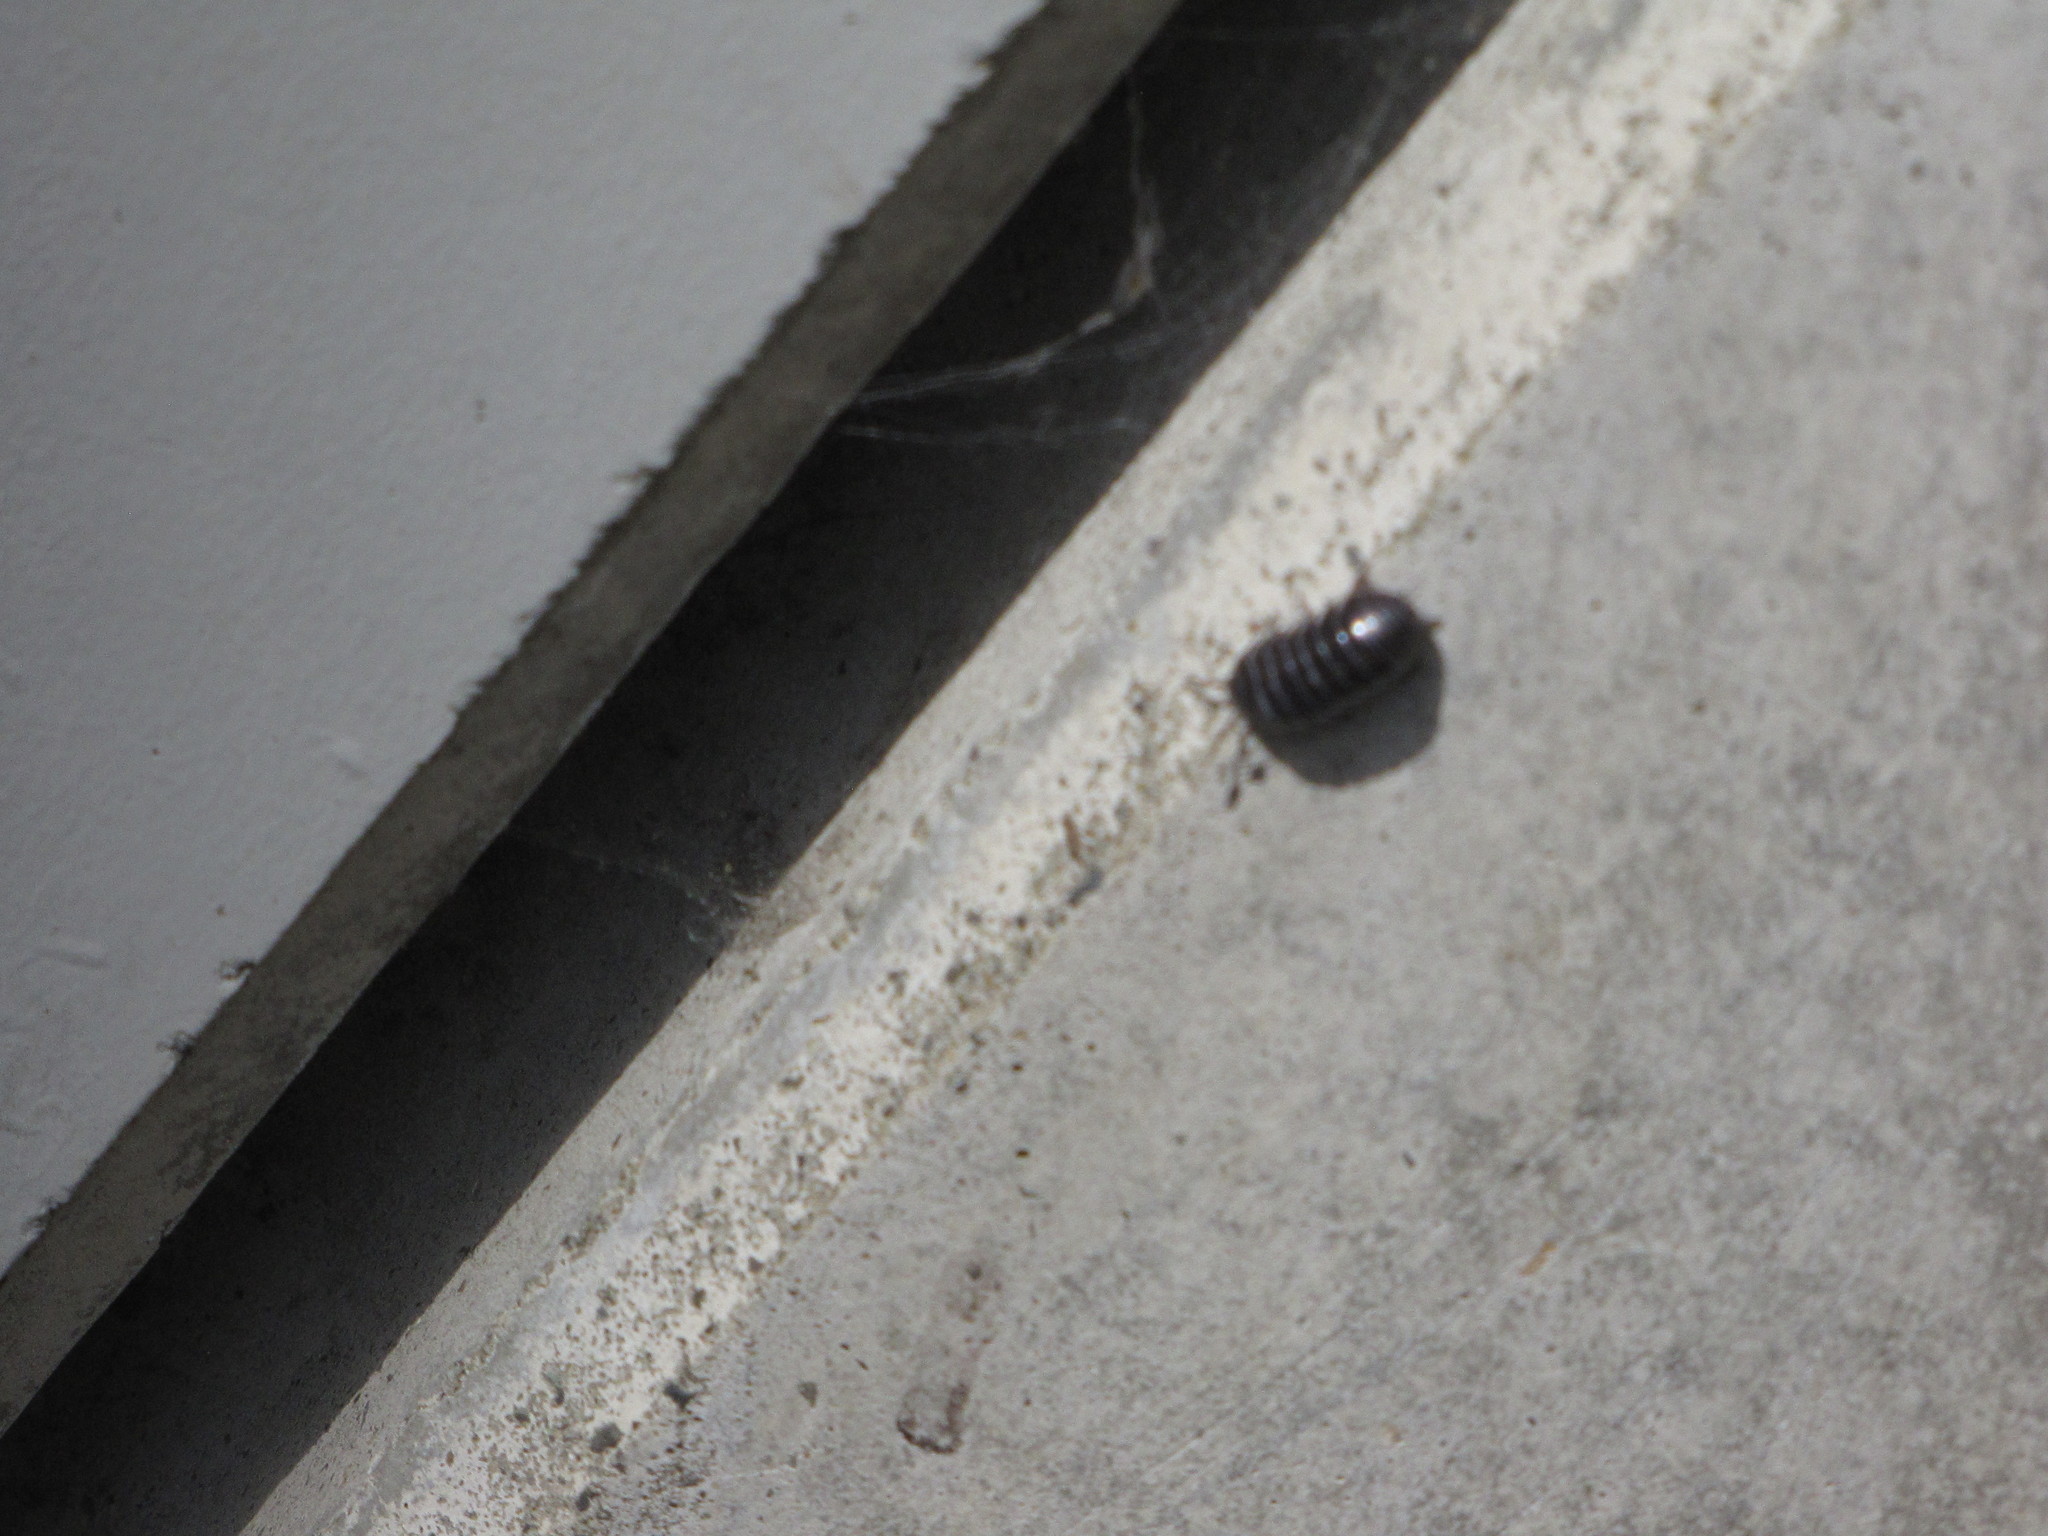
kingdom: Animalia
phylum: Arthropoda
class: Malacostraca
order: Isopoda
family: Armadillidiidae
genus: Armadillidium
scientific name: Armadillidium vulgare
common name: Common pill woodlouse
